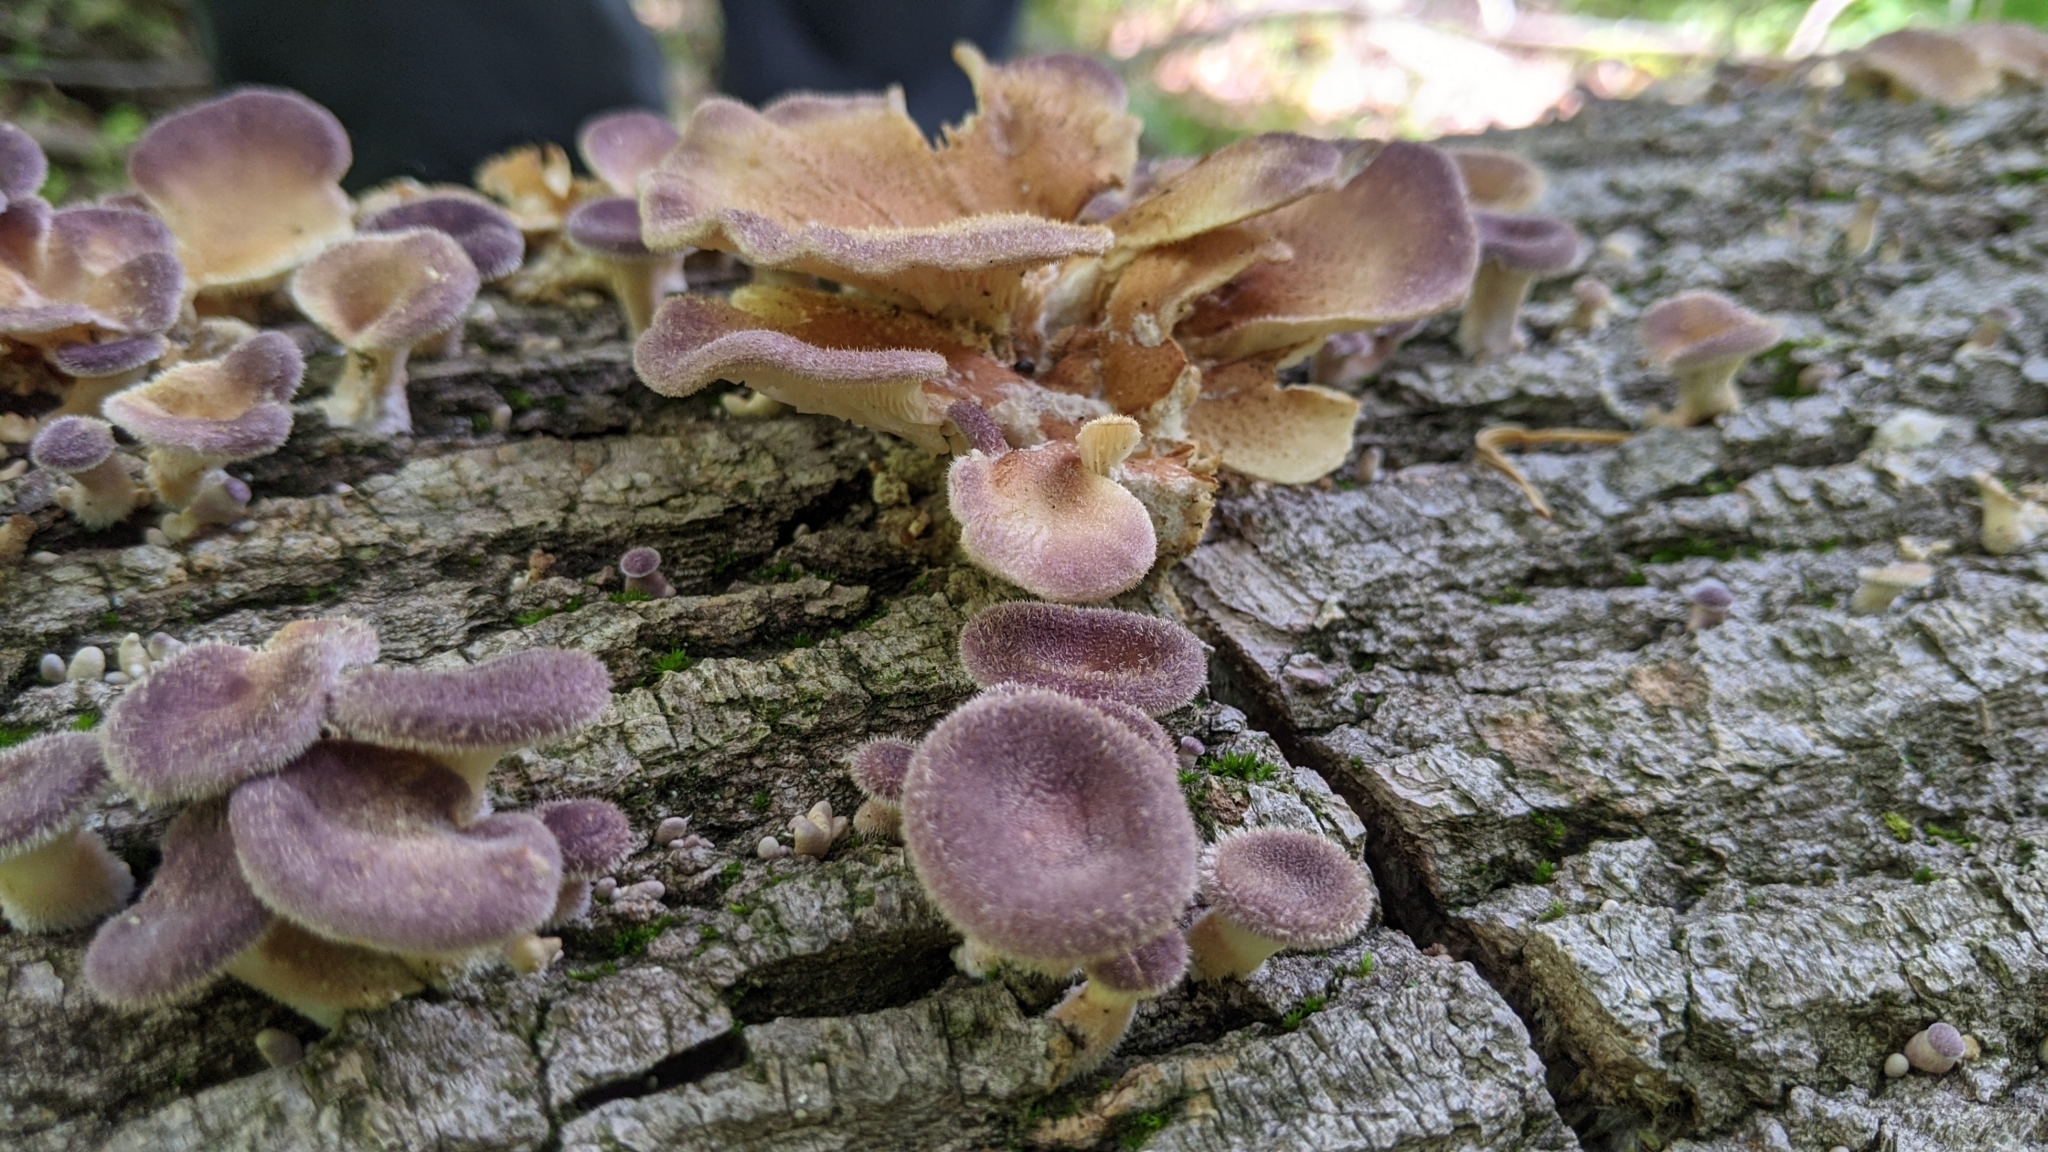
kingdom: Fungi
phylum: Basidiomycota
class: Agaricomycetes
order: Polyporales
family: Panaceae
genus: Panus
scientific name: Panus neostrigosus
